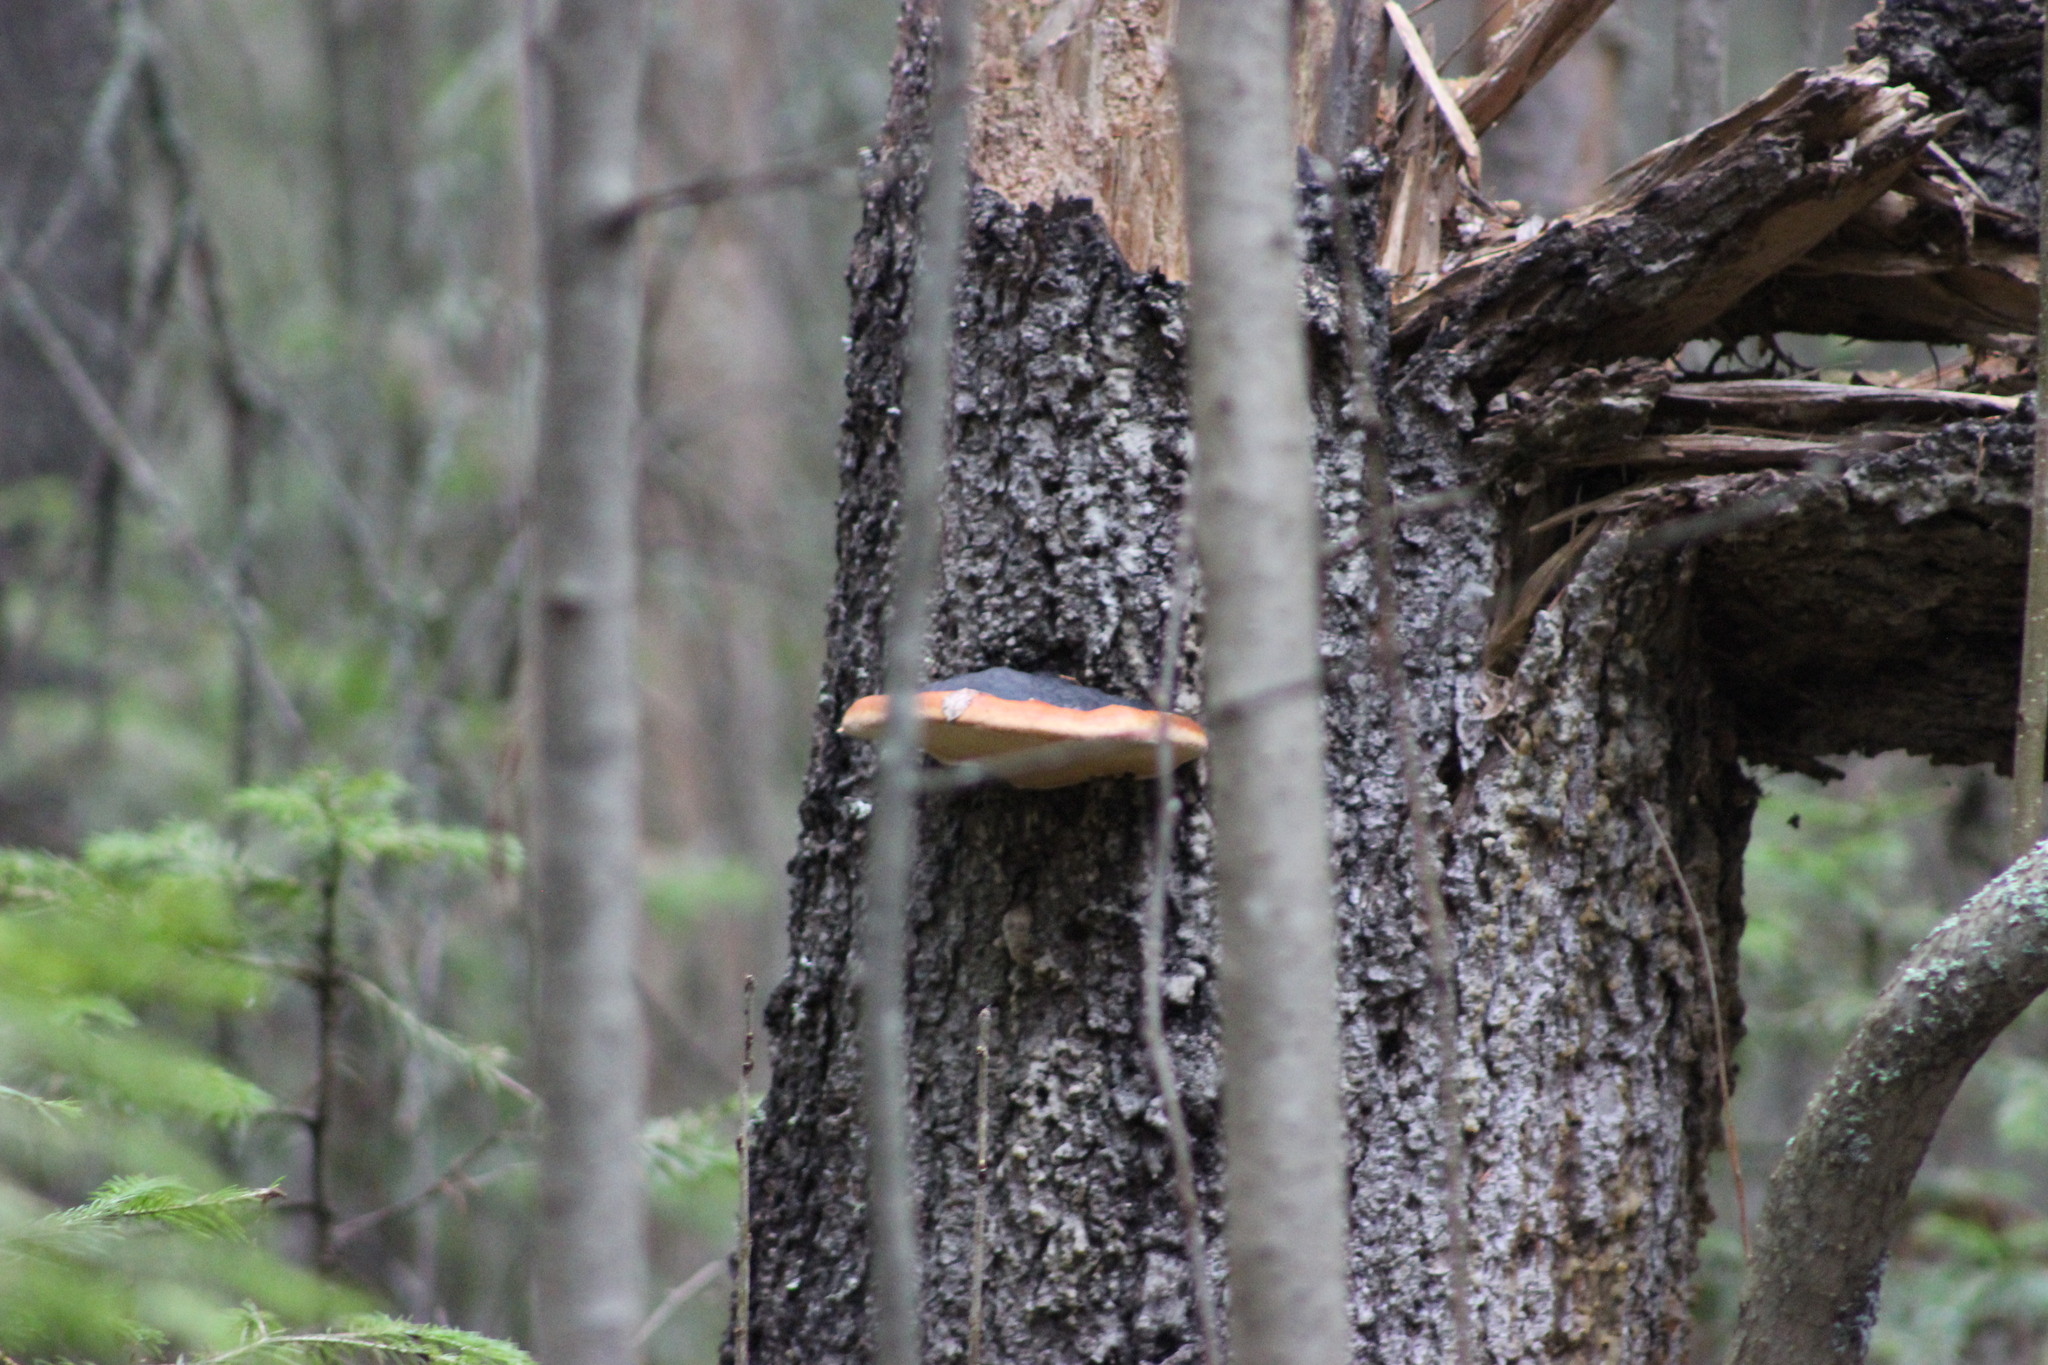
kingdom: Fungi
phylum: Basidiomycota
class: Agaricomycetes
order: Polyporales
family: Fomitopsidaceae
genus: Fomitopsis
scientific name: Fomitopsis pinicola
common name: Red-belted bracket
